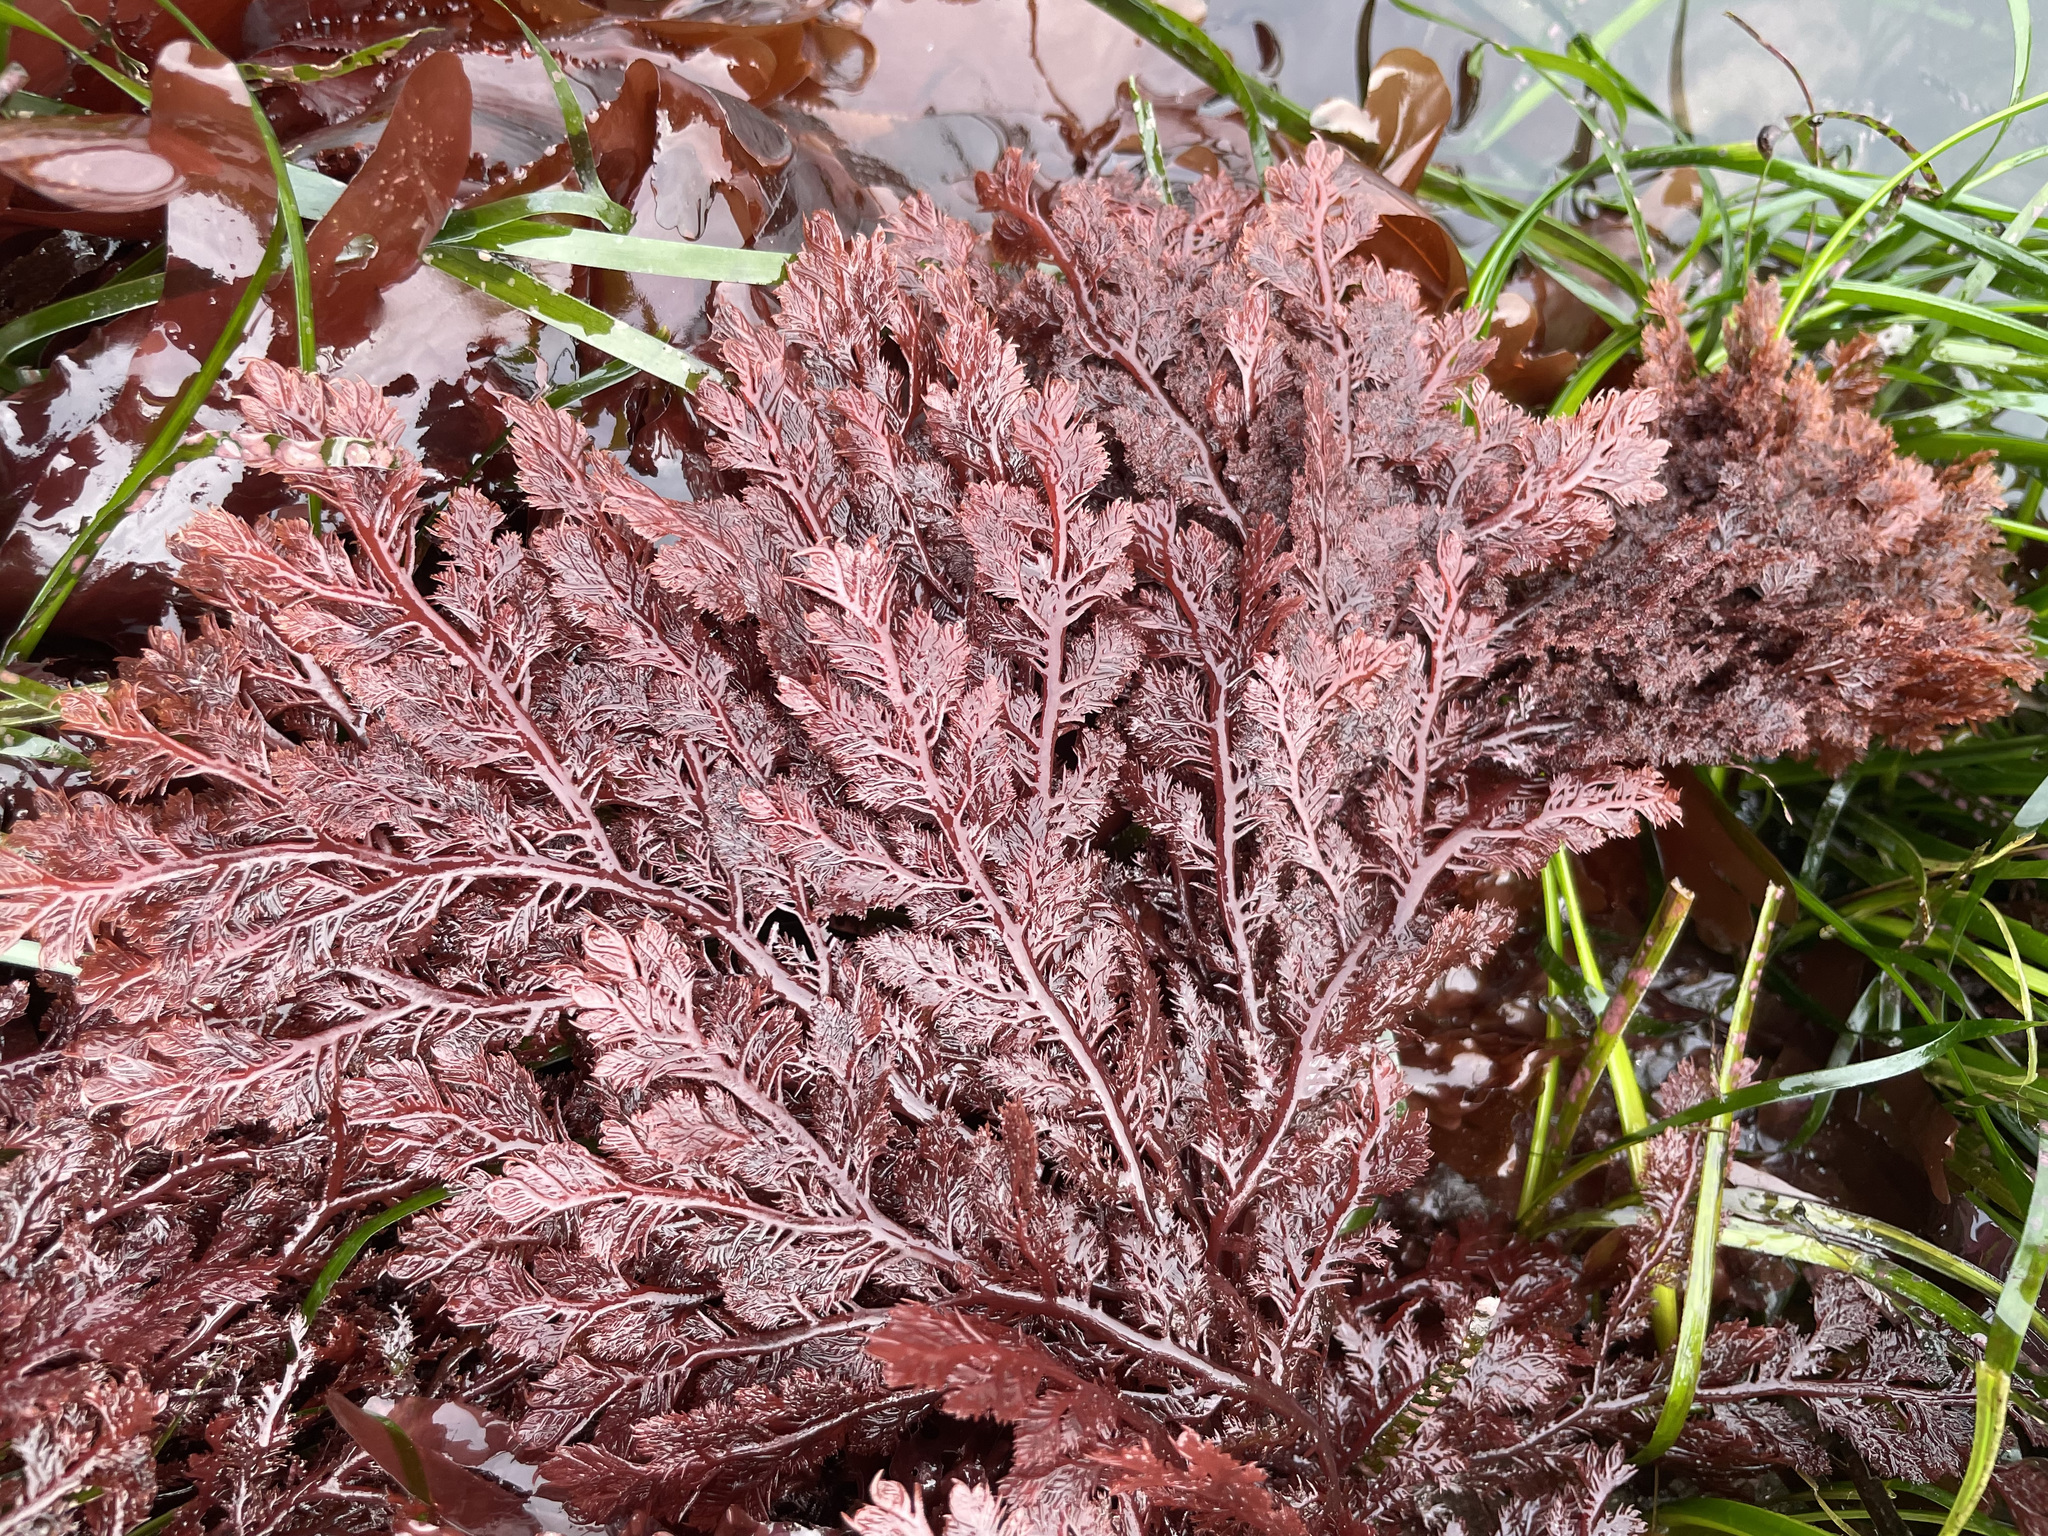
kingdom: Plantae
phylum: Rhodophyta
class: Florideophyceae
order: Plocamiales
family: Plocamiaceae
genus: Plocamium
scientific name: Plocamium cartilagineum
